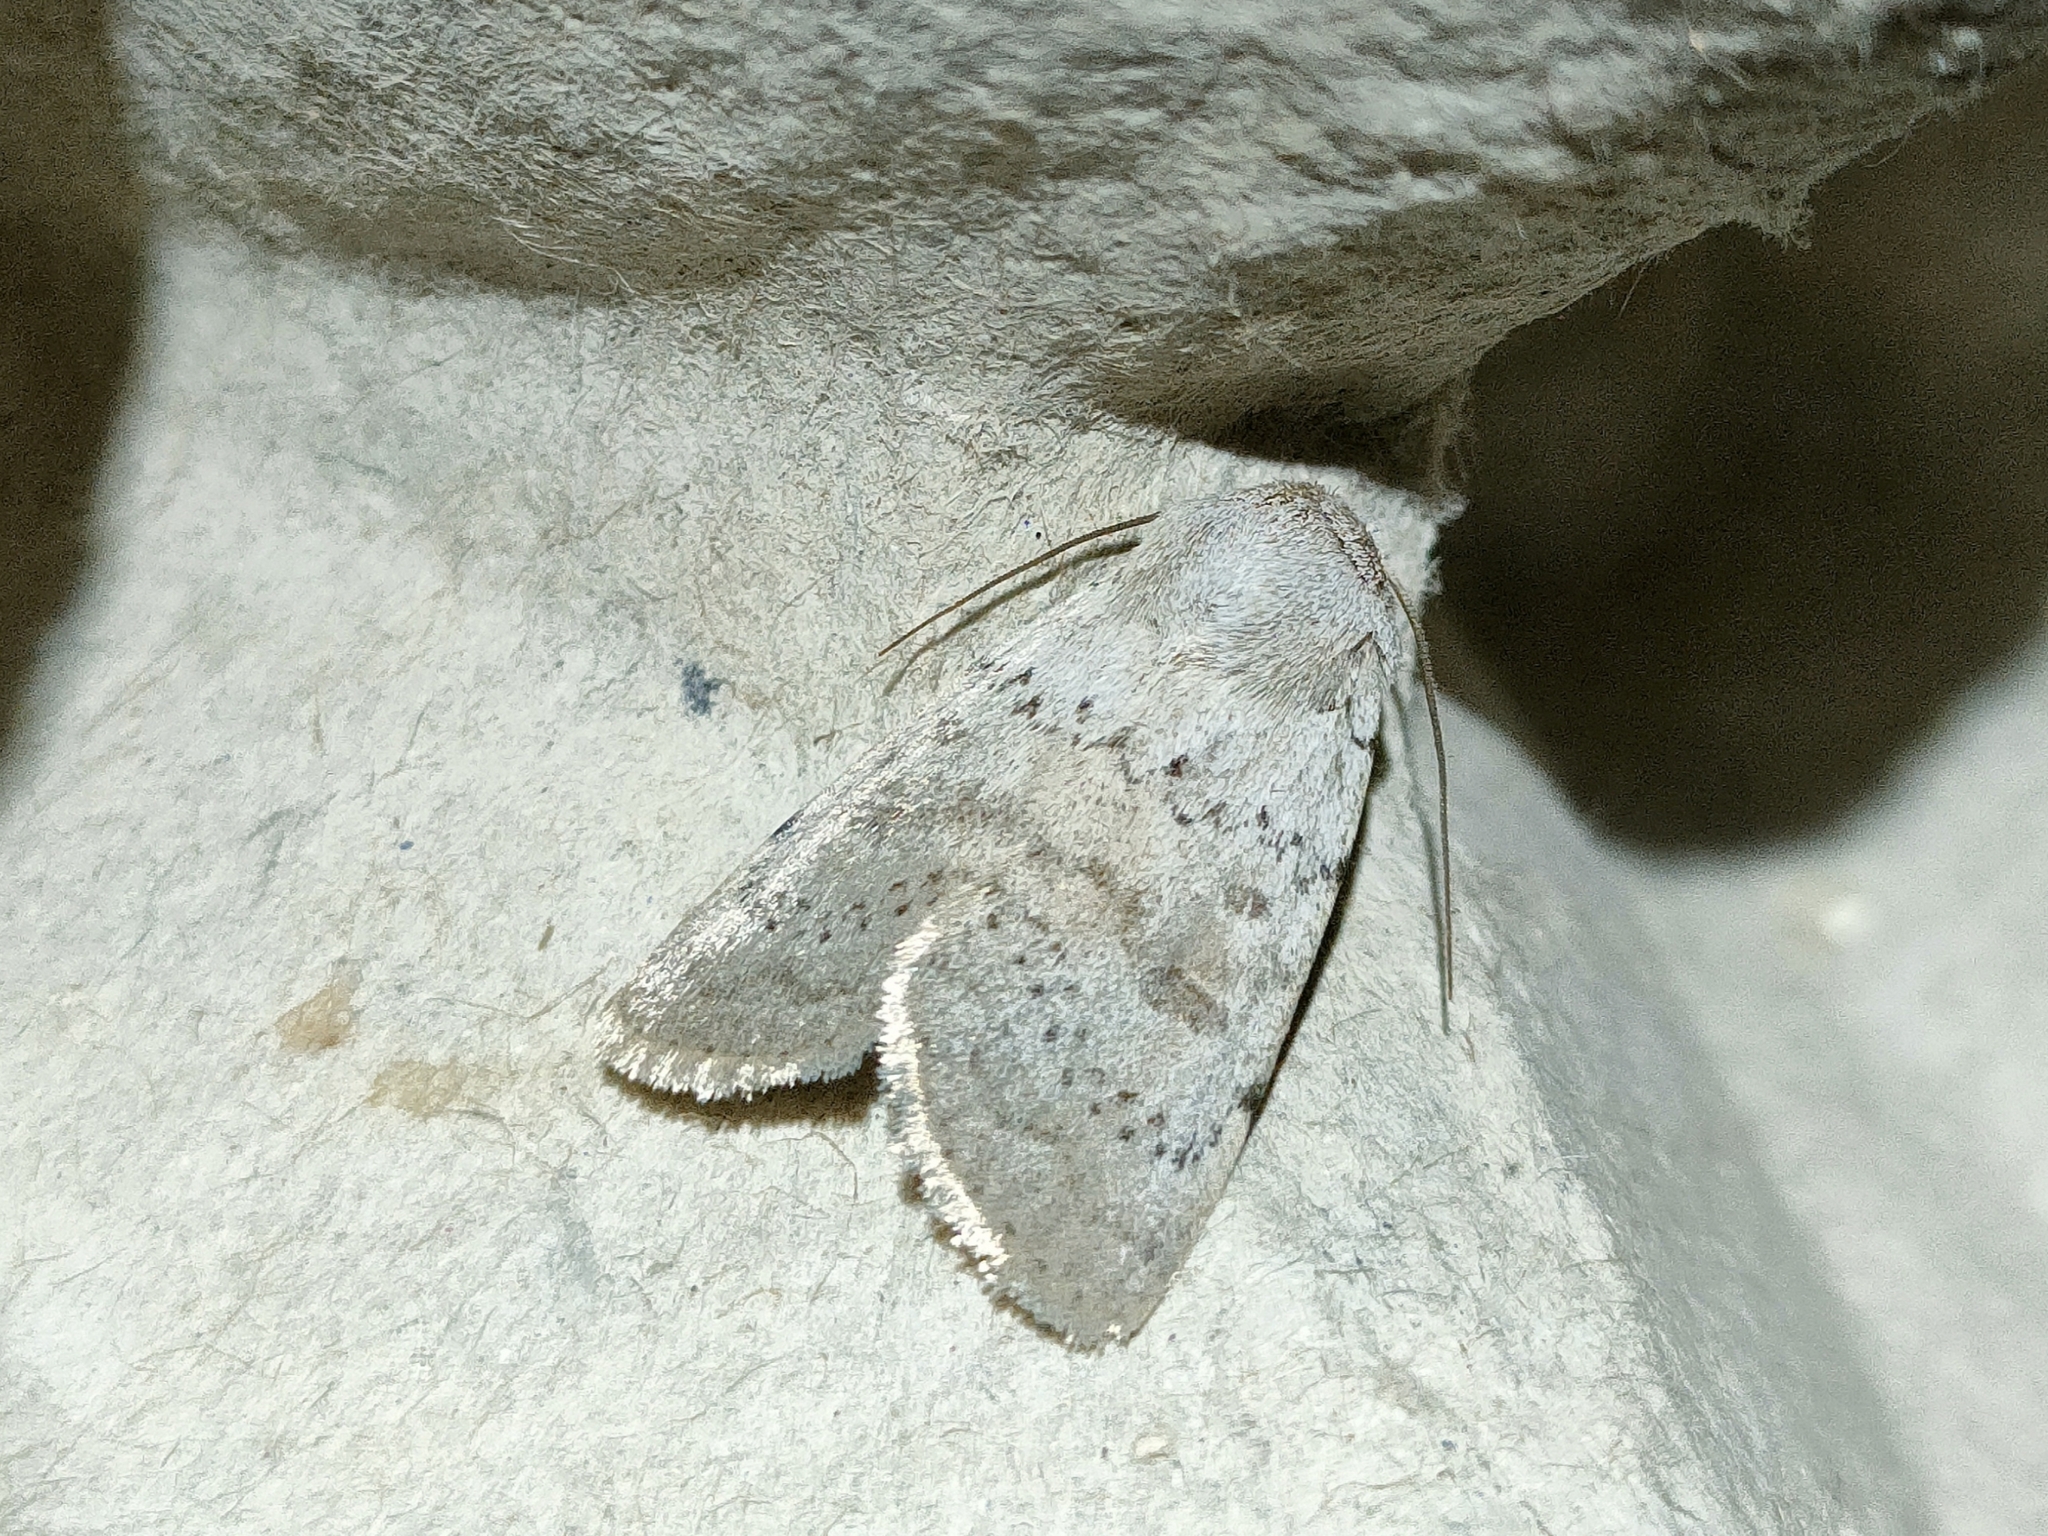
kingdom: Animalia
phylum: Arthropoda
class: Insecta
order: Lepidoptera
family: Noctuidae
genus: Hoplodrina
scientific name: Hoplodrina respersa
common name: Sprinkled rustic
